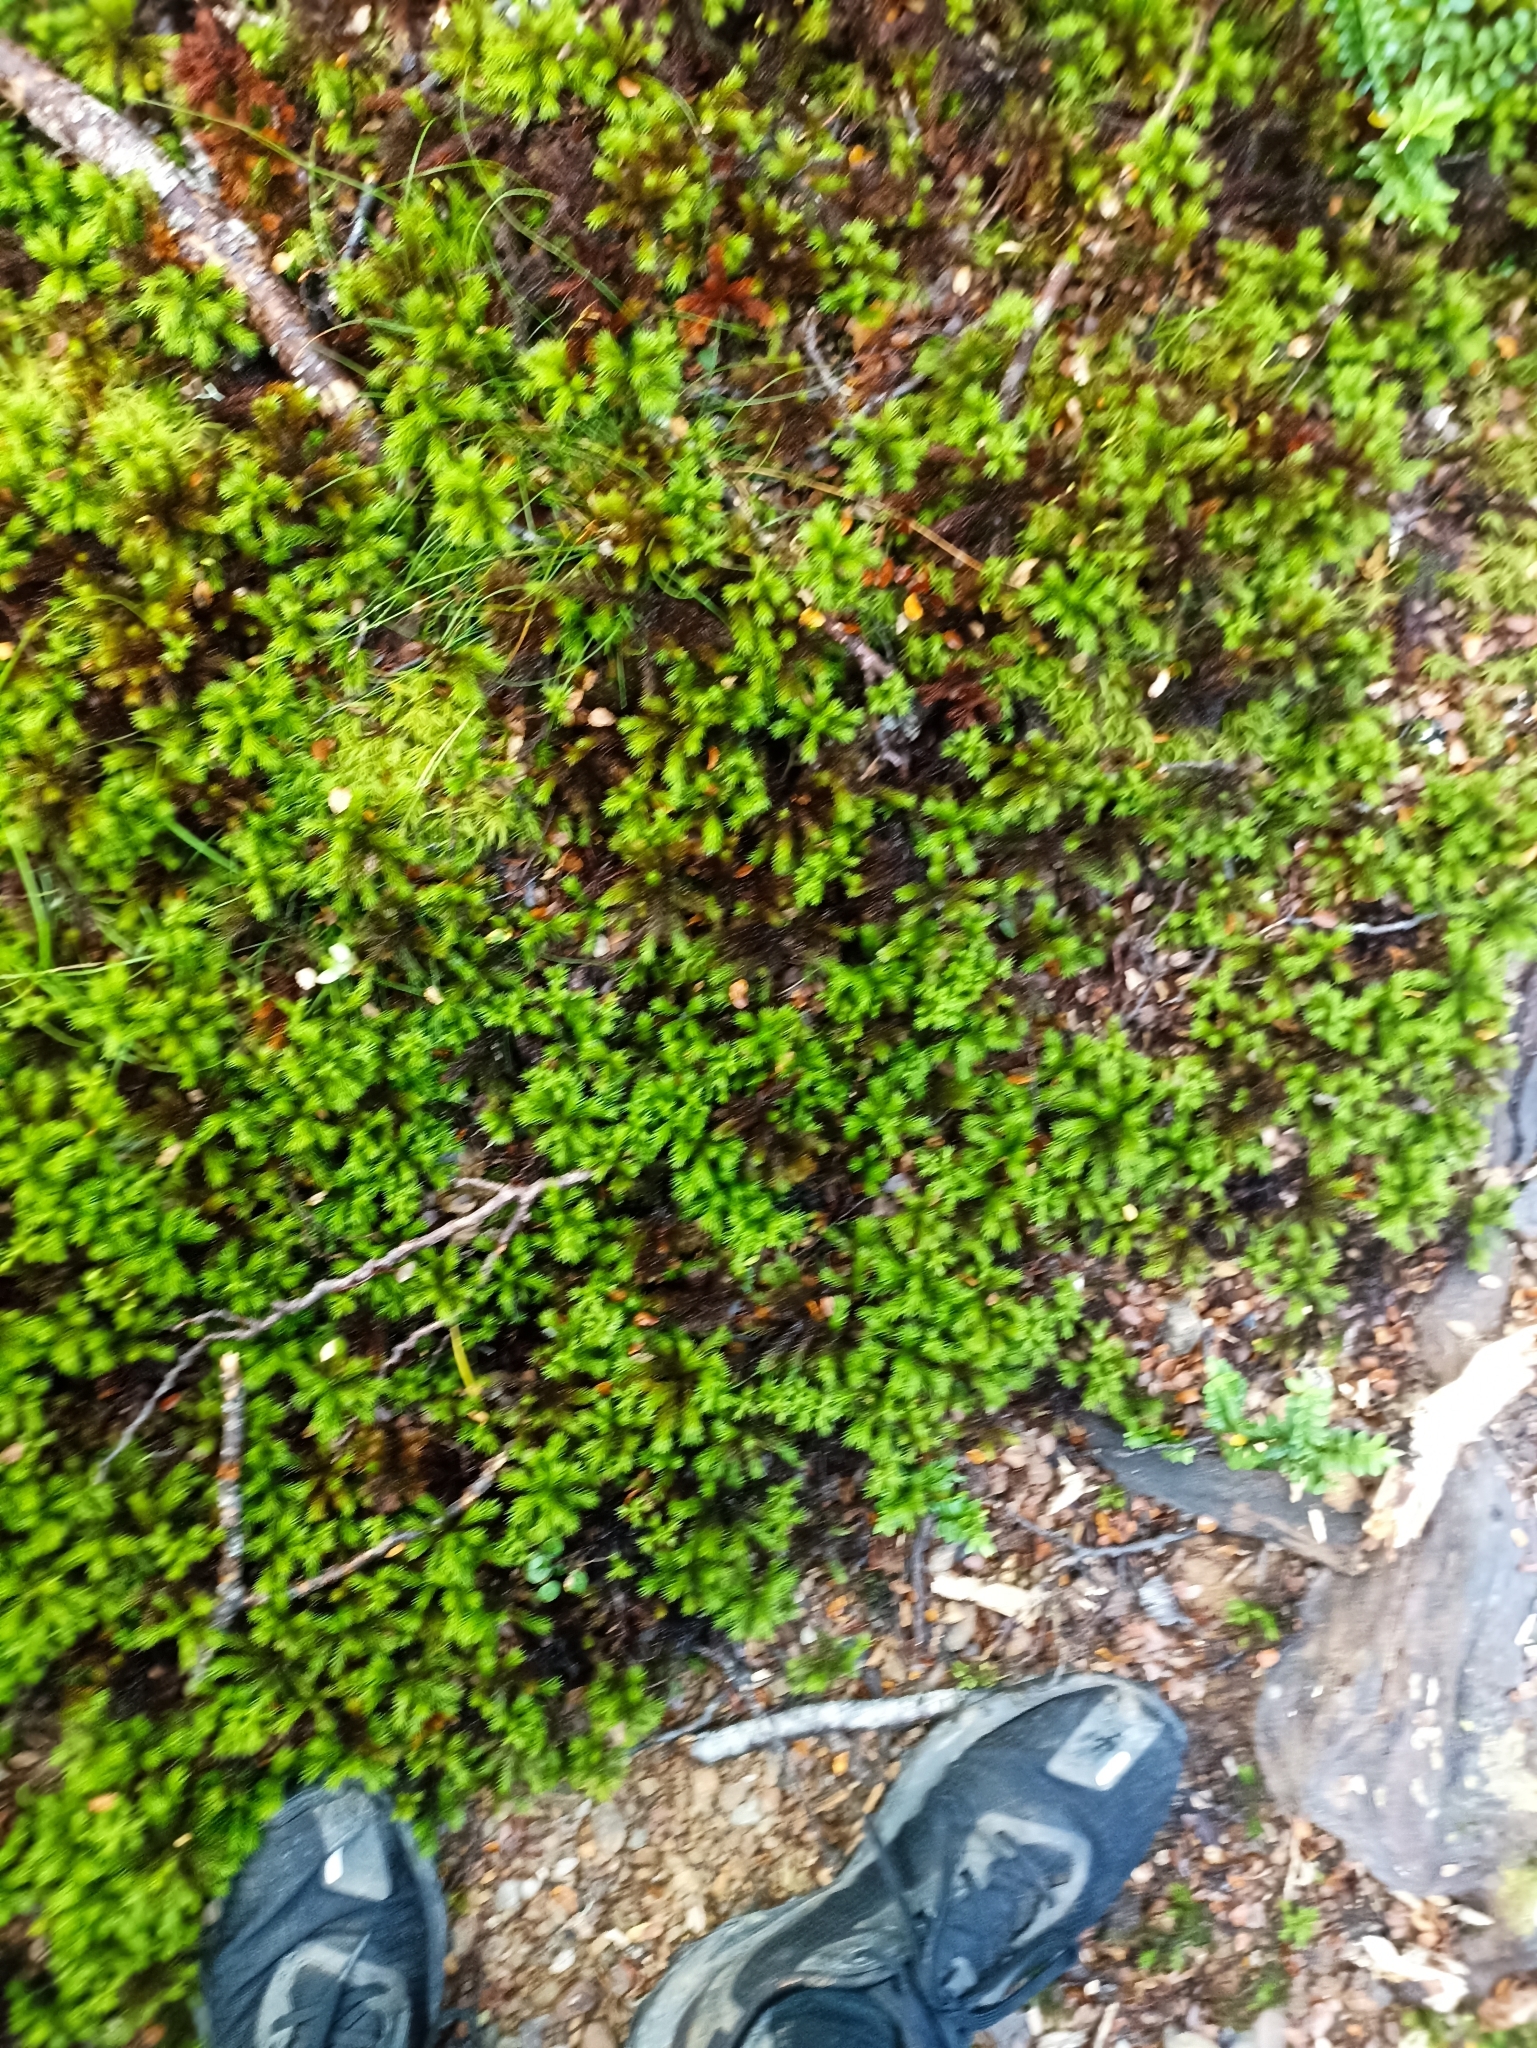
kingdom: Plantae
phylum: Bryophyta
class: Polytrichopsida
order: Polytrichales
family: Polytrichaceae
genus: Dendroligotrichum
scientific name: Dendroligotrichum tongariroense
